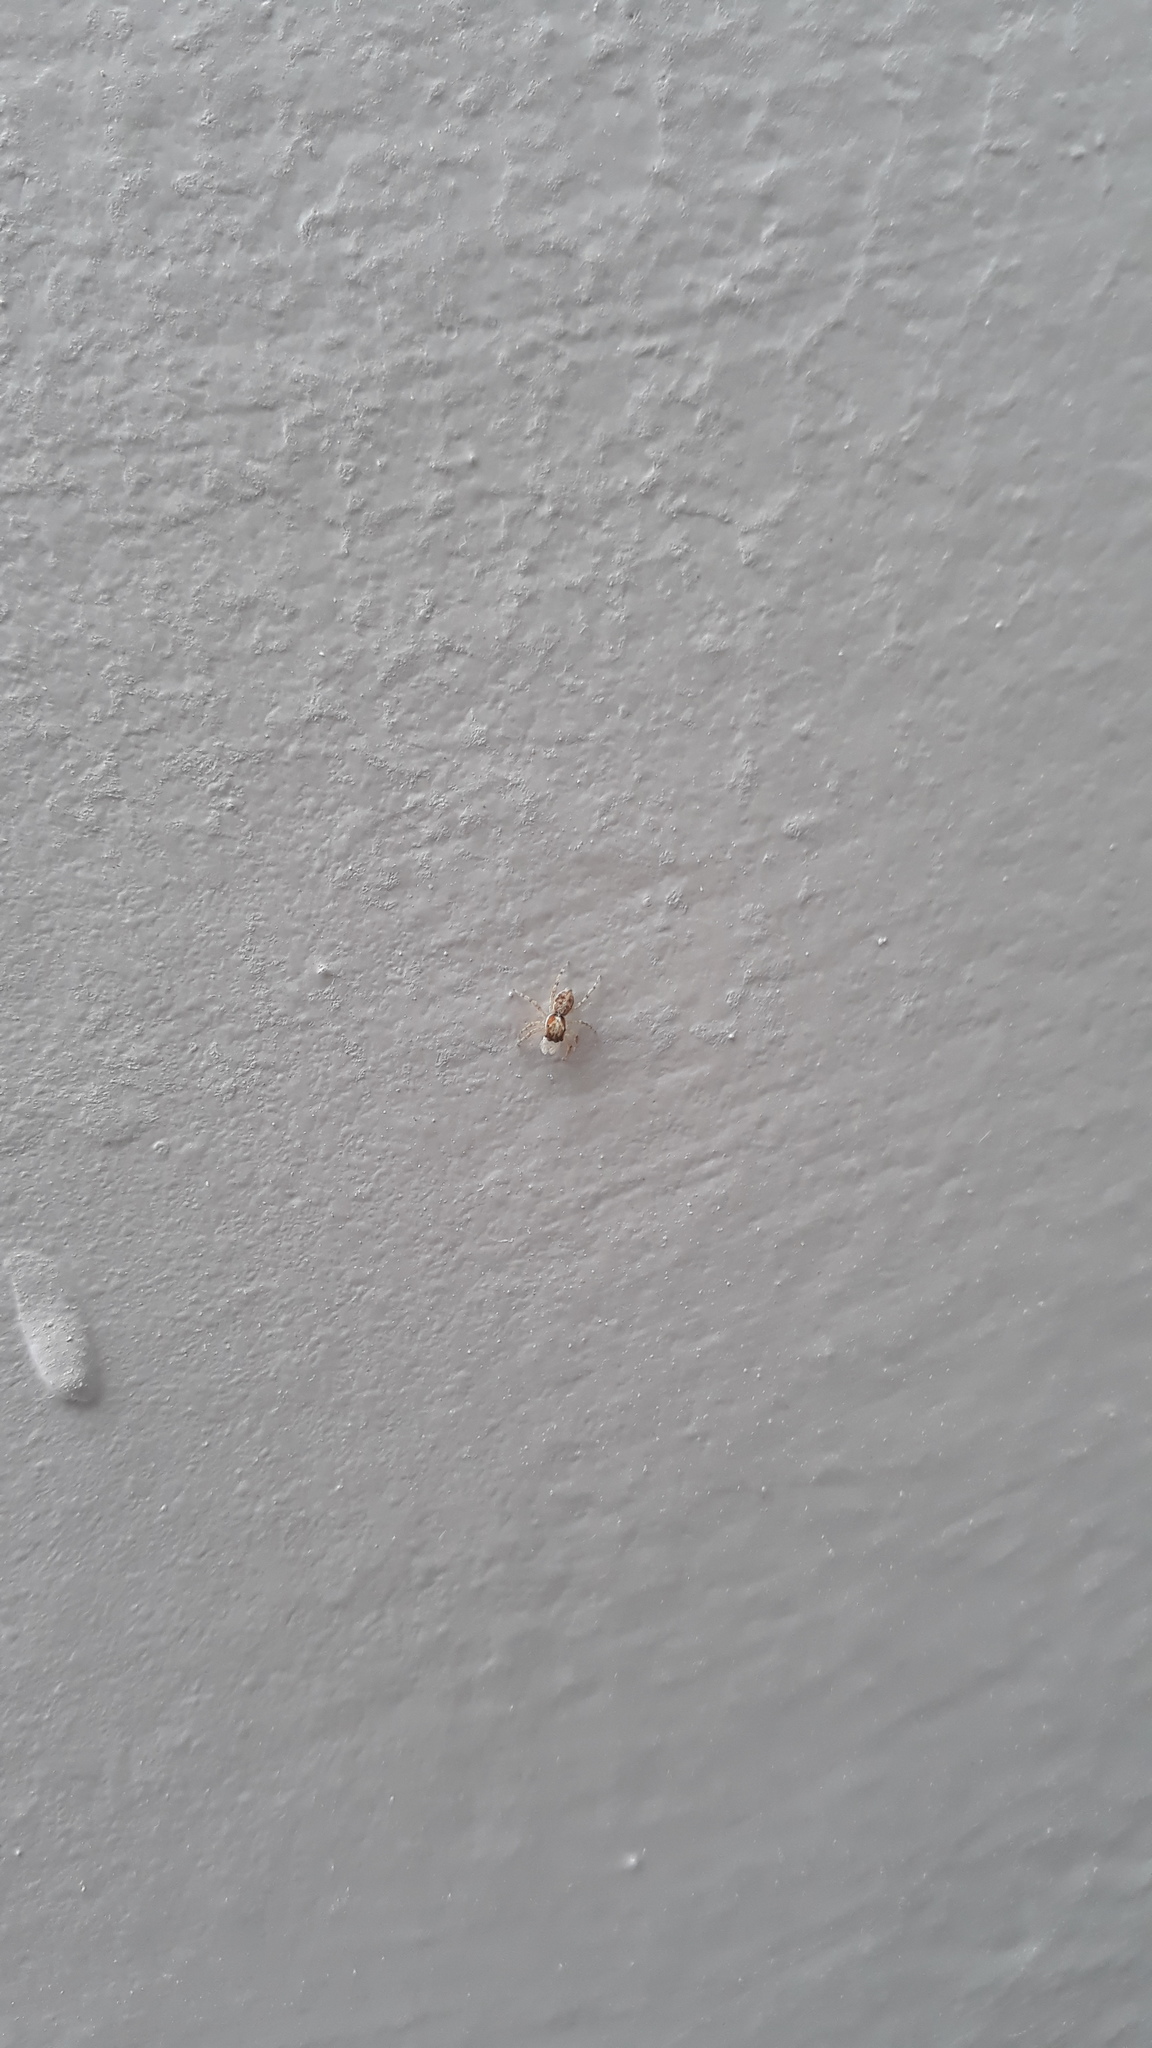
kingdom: Animalia
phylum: Arthropoda
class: Arachnida
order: Araneae
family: Salticidae
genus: Menemerus
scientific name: Menemerus semilimbatus
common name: Jumping spider
